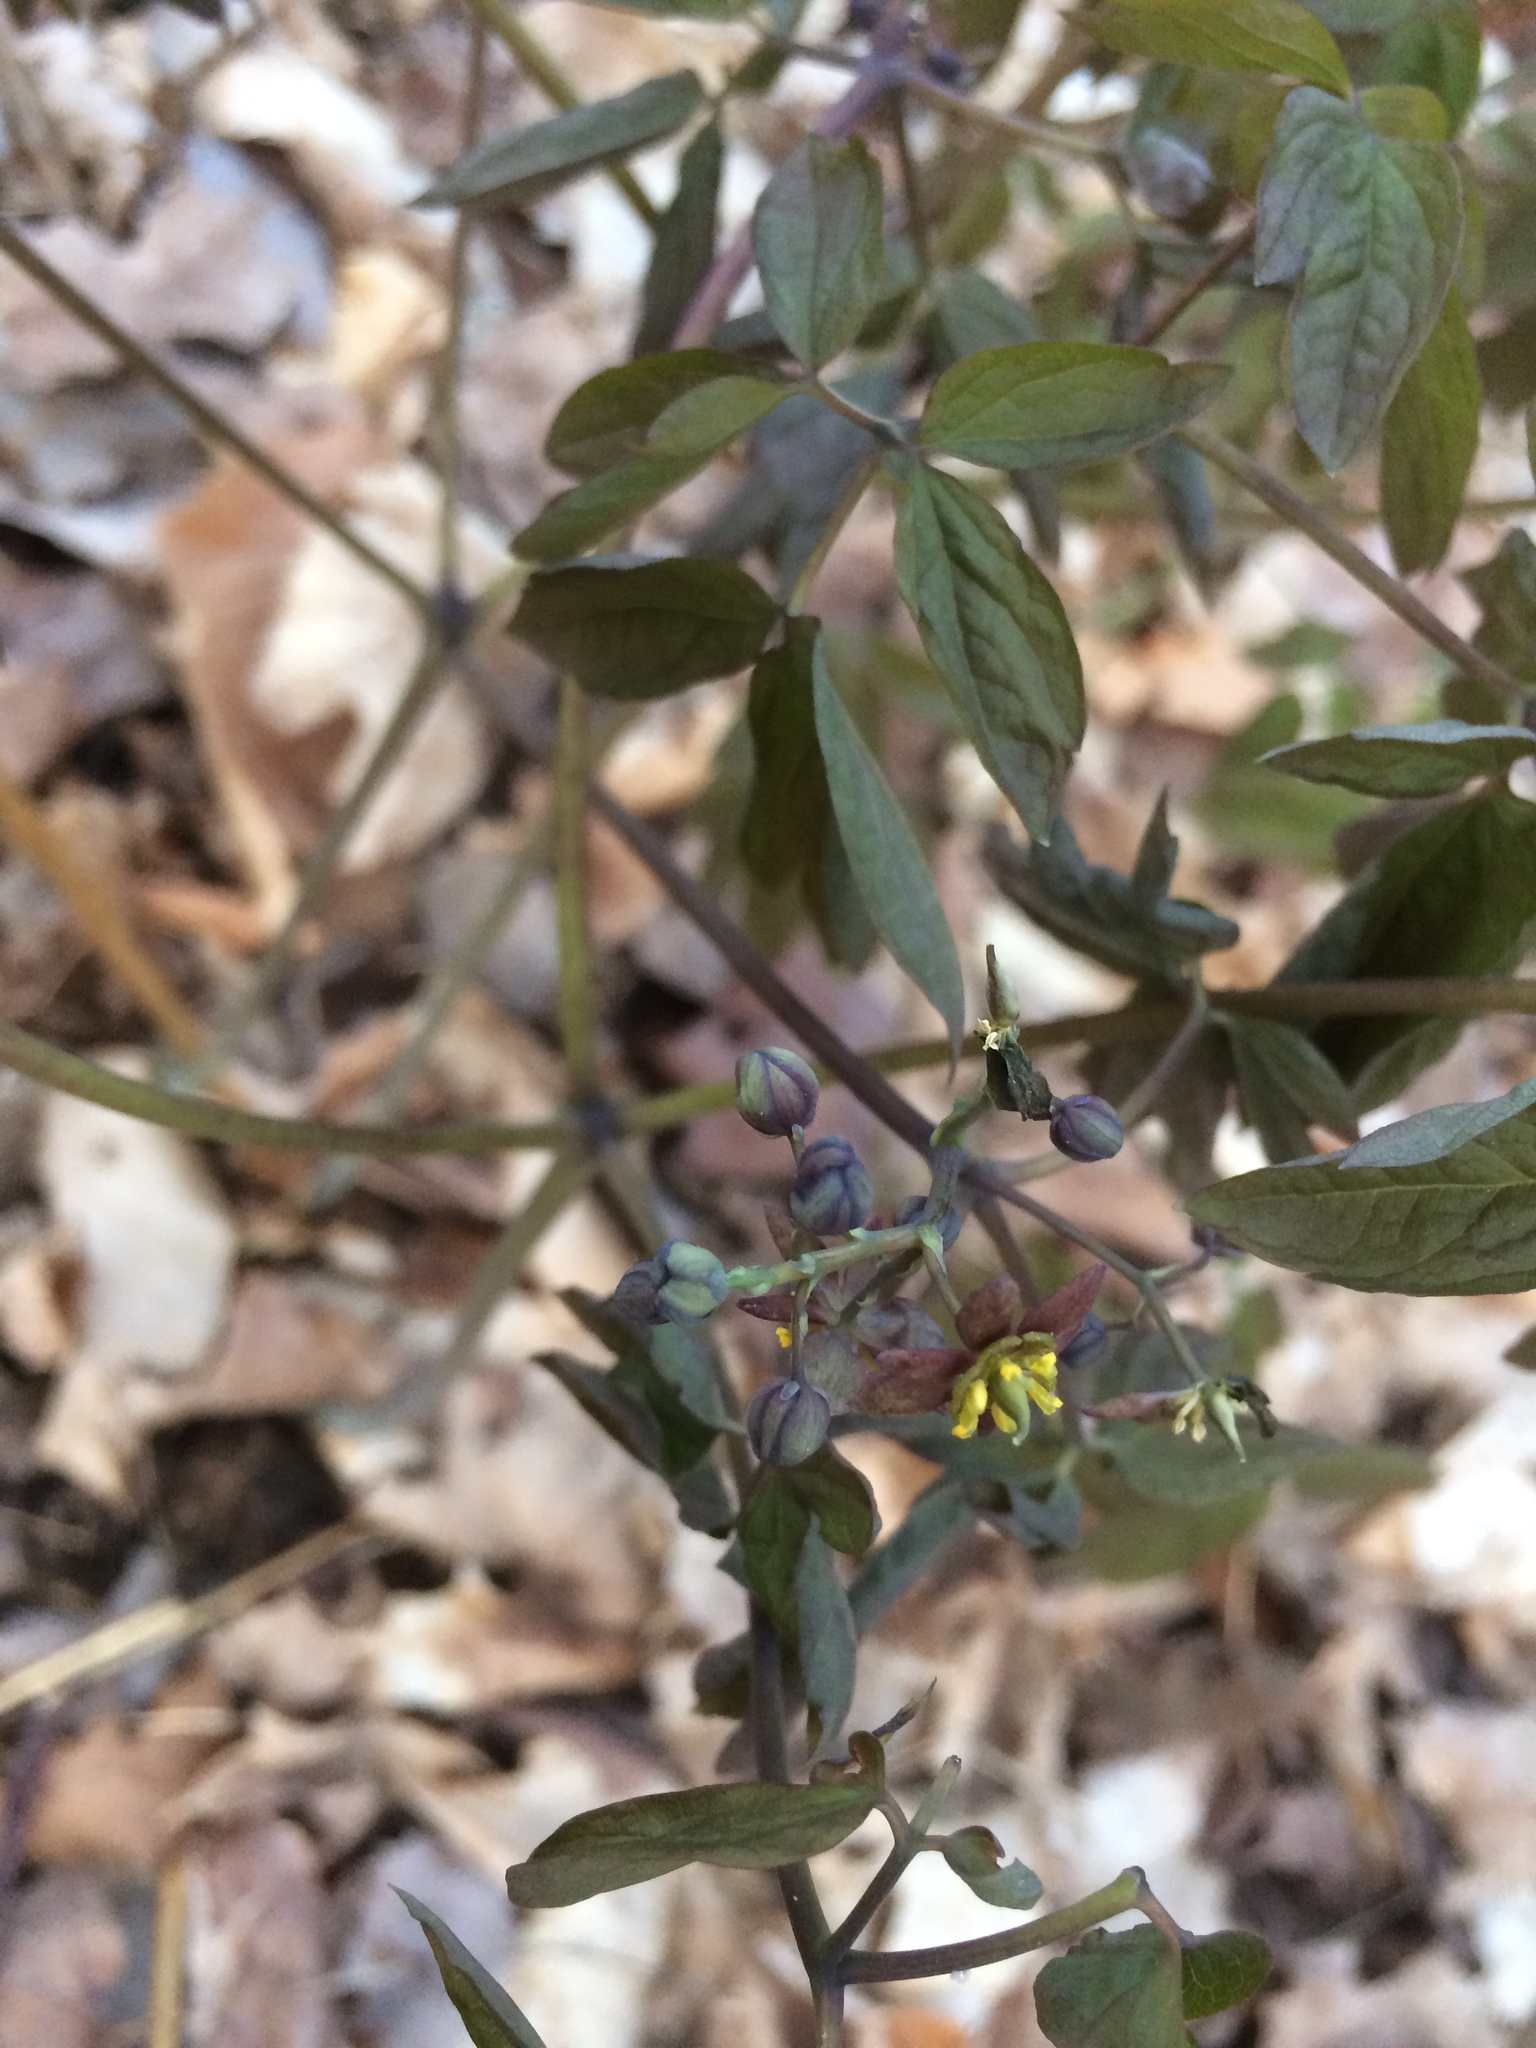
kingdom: Plantae
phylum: Tracheophyta
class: Magnoliopsida
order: Ranunculales
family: Berberidaceae
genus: Caulophyllum
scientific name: Caulophyllum giganteum
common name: Blue cohosh
